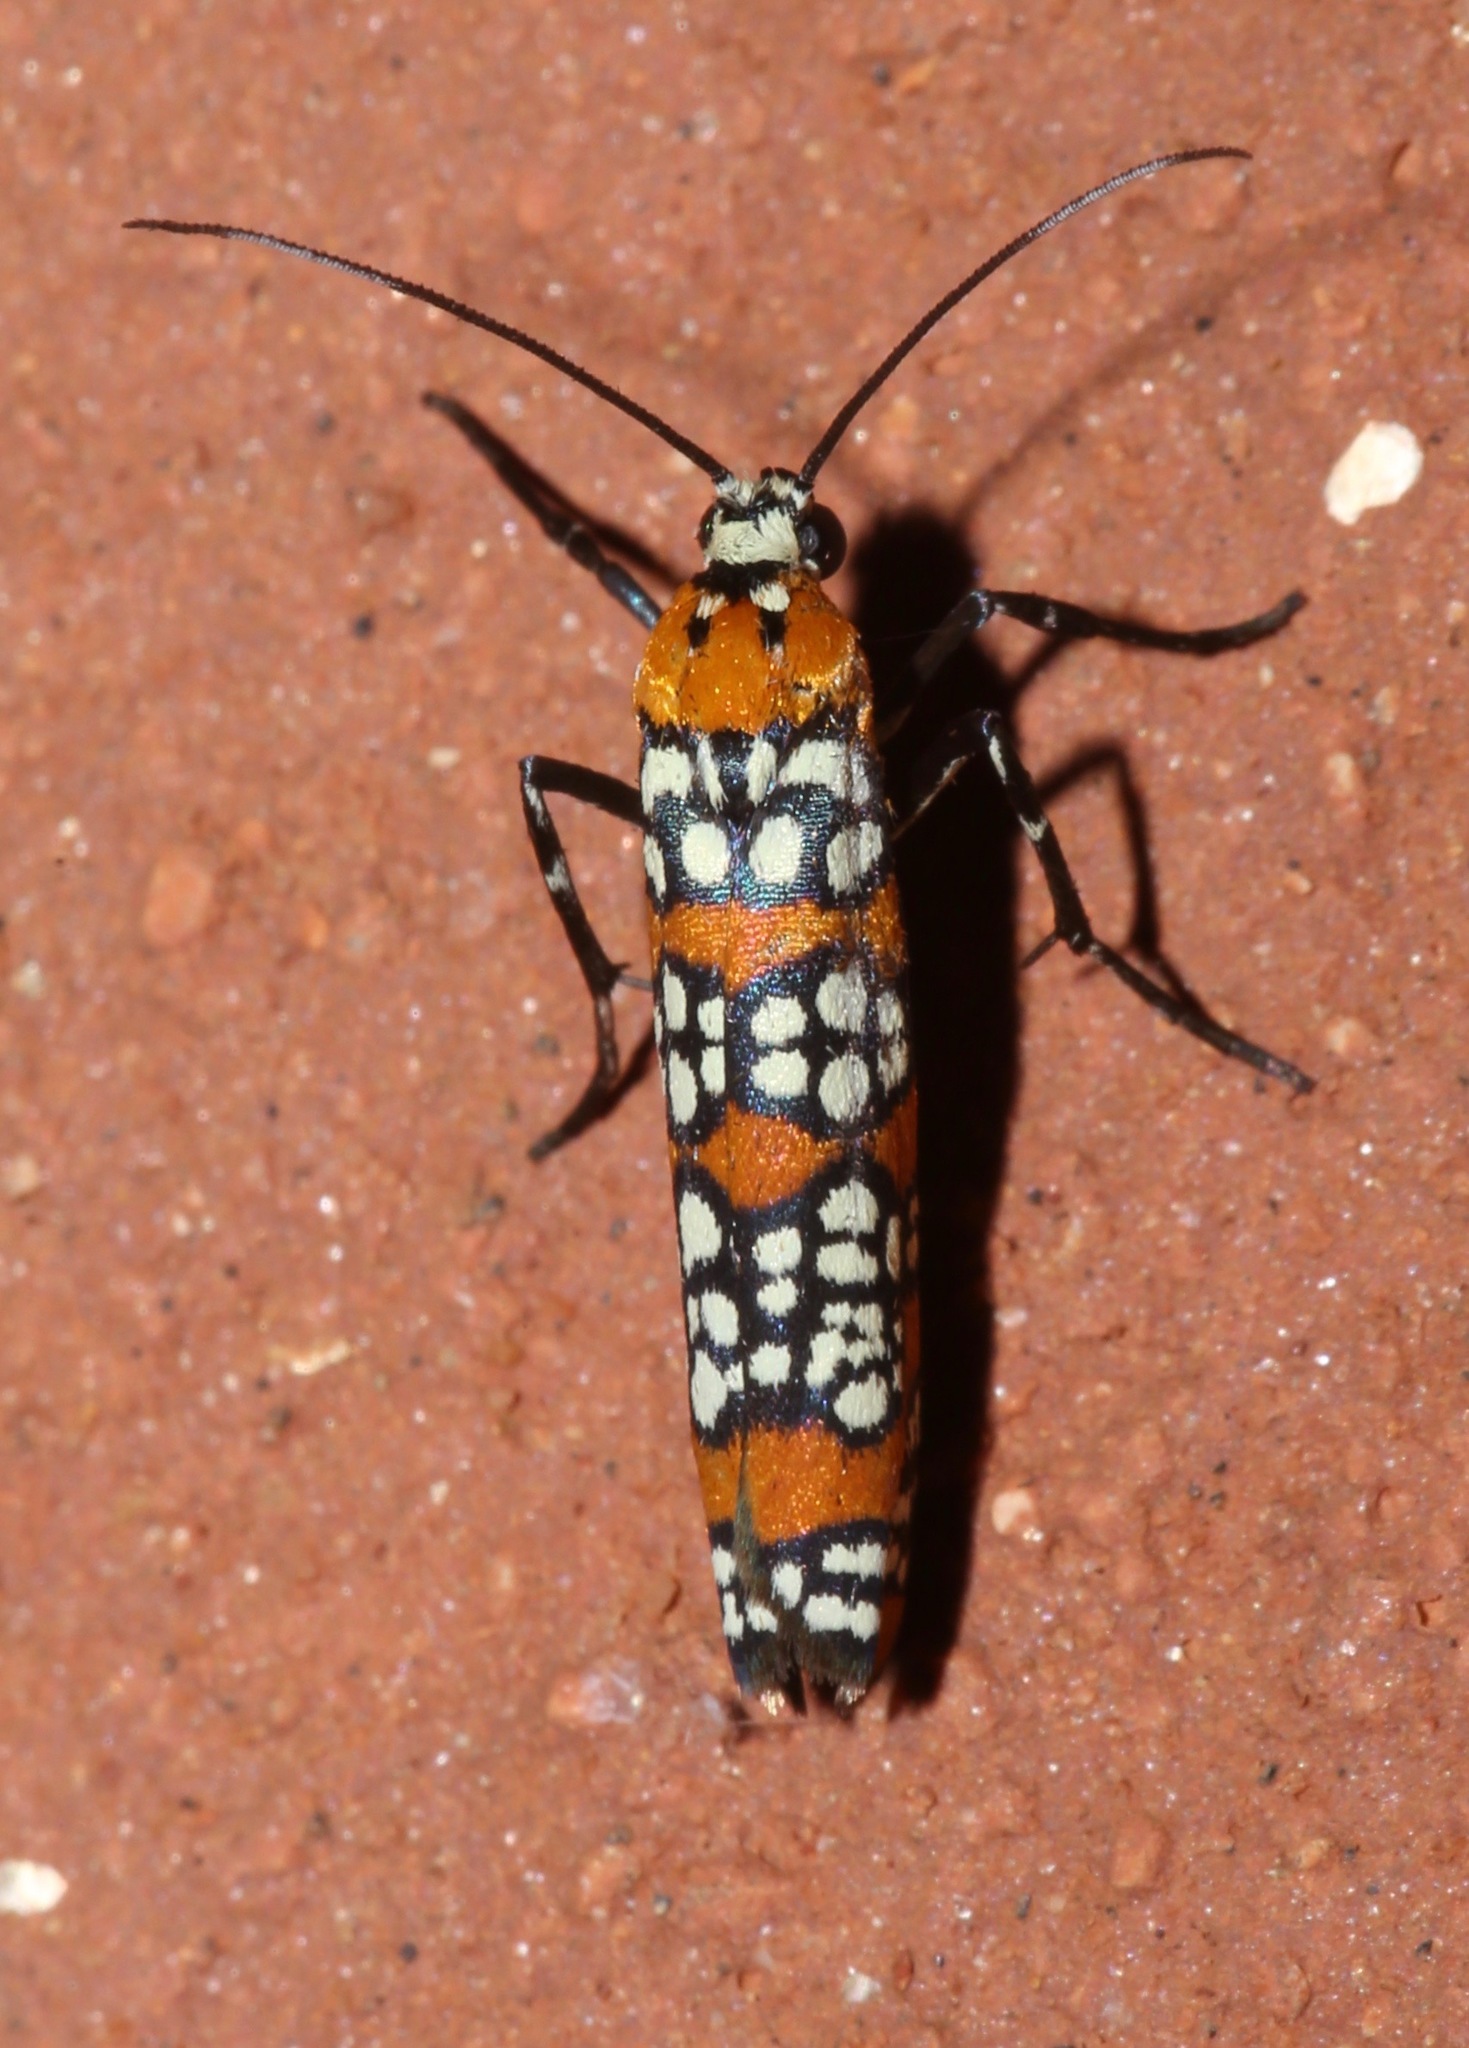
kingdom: Animalia
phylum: Arthropoda
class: Insecta
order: Lepidoptera
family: Attevidae
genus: Atteva
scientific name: Atteva punctella
